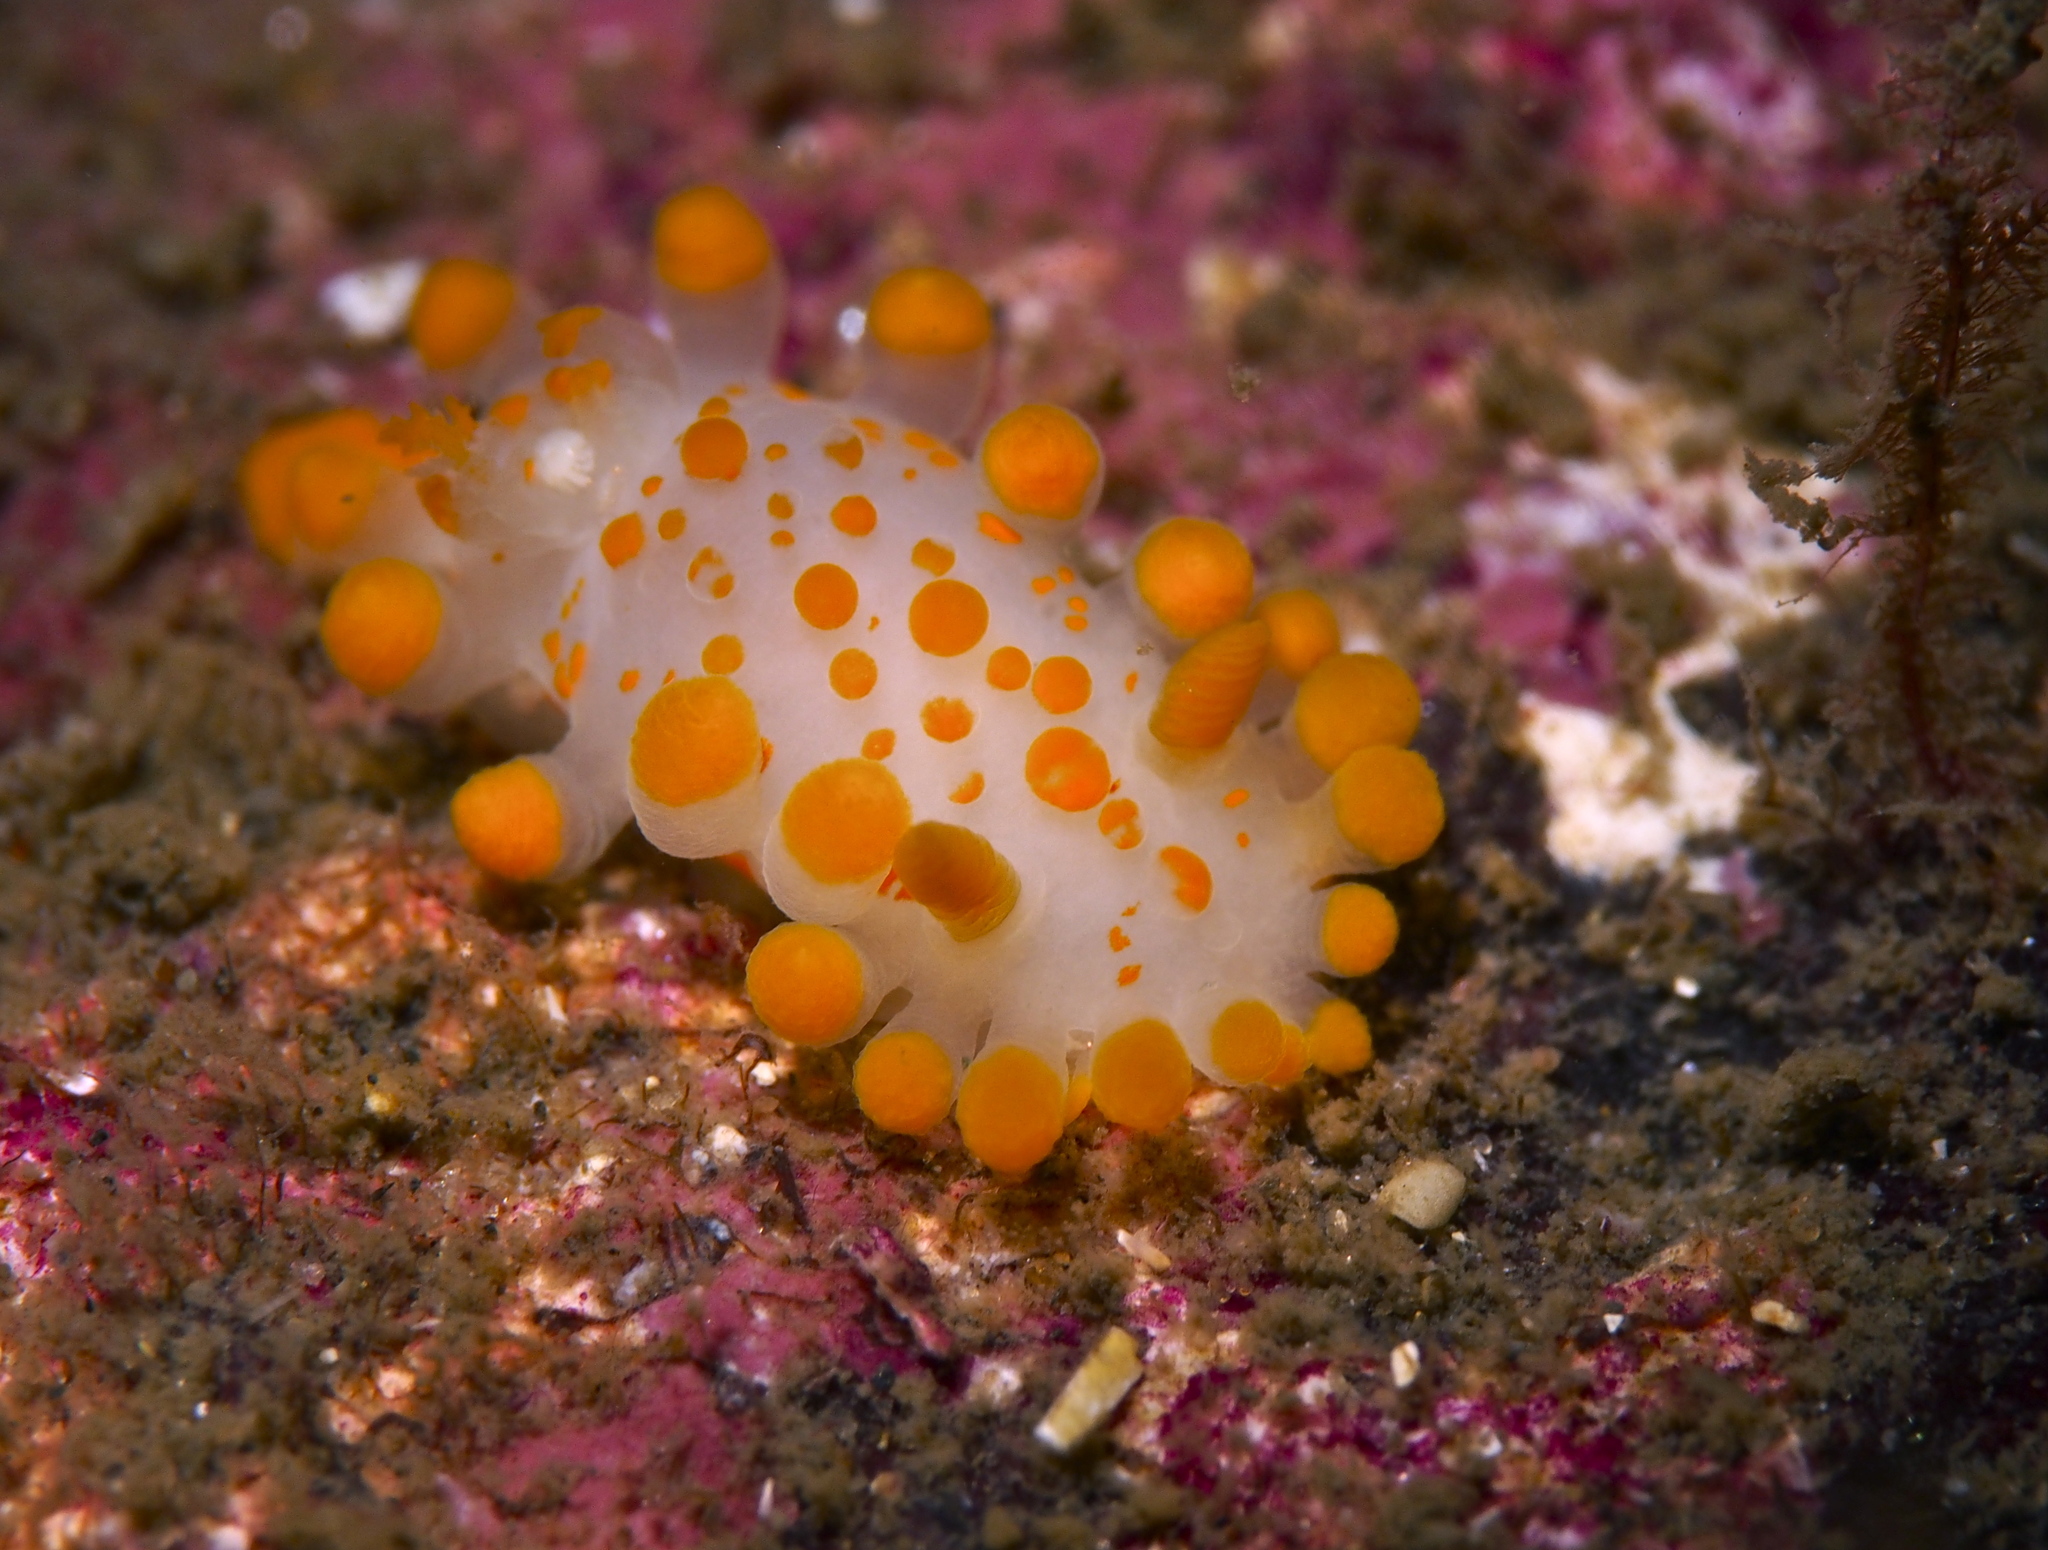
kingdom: Animalia
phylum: Mollusca
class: Gastropoda
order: Nudibranchia
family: Polyceridae
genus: Limacia
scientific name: Limacia clavigera
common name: Orange-clubbed sea slug
